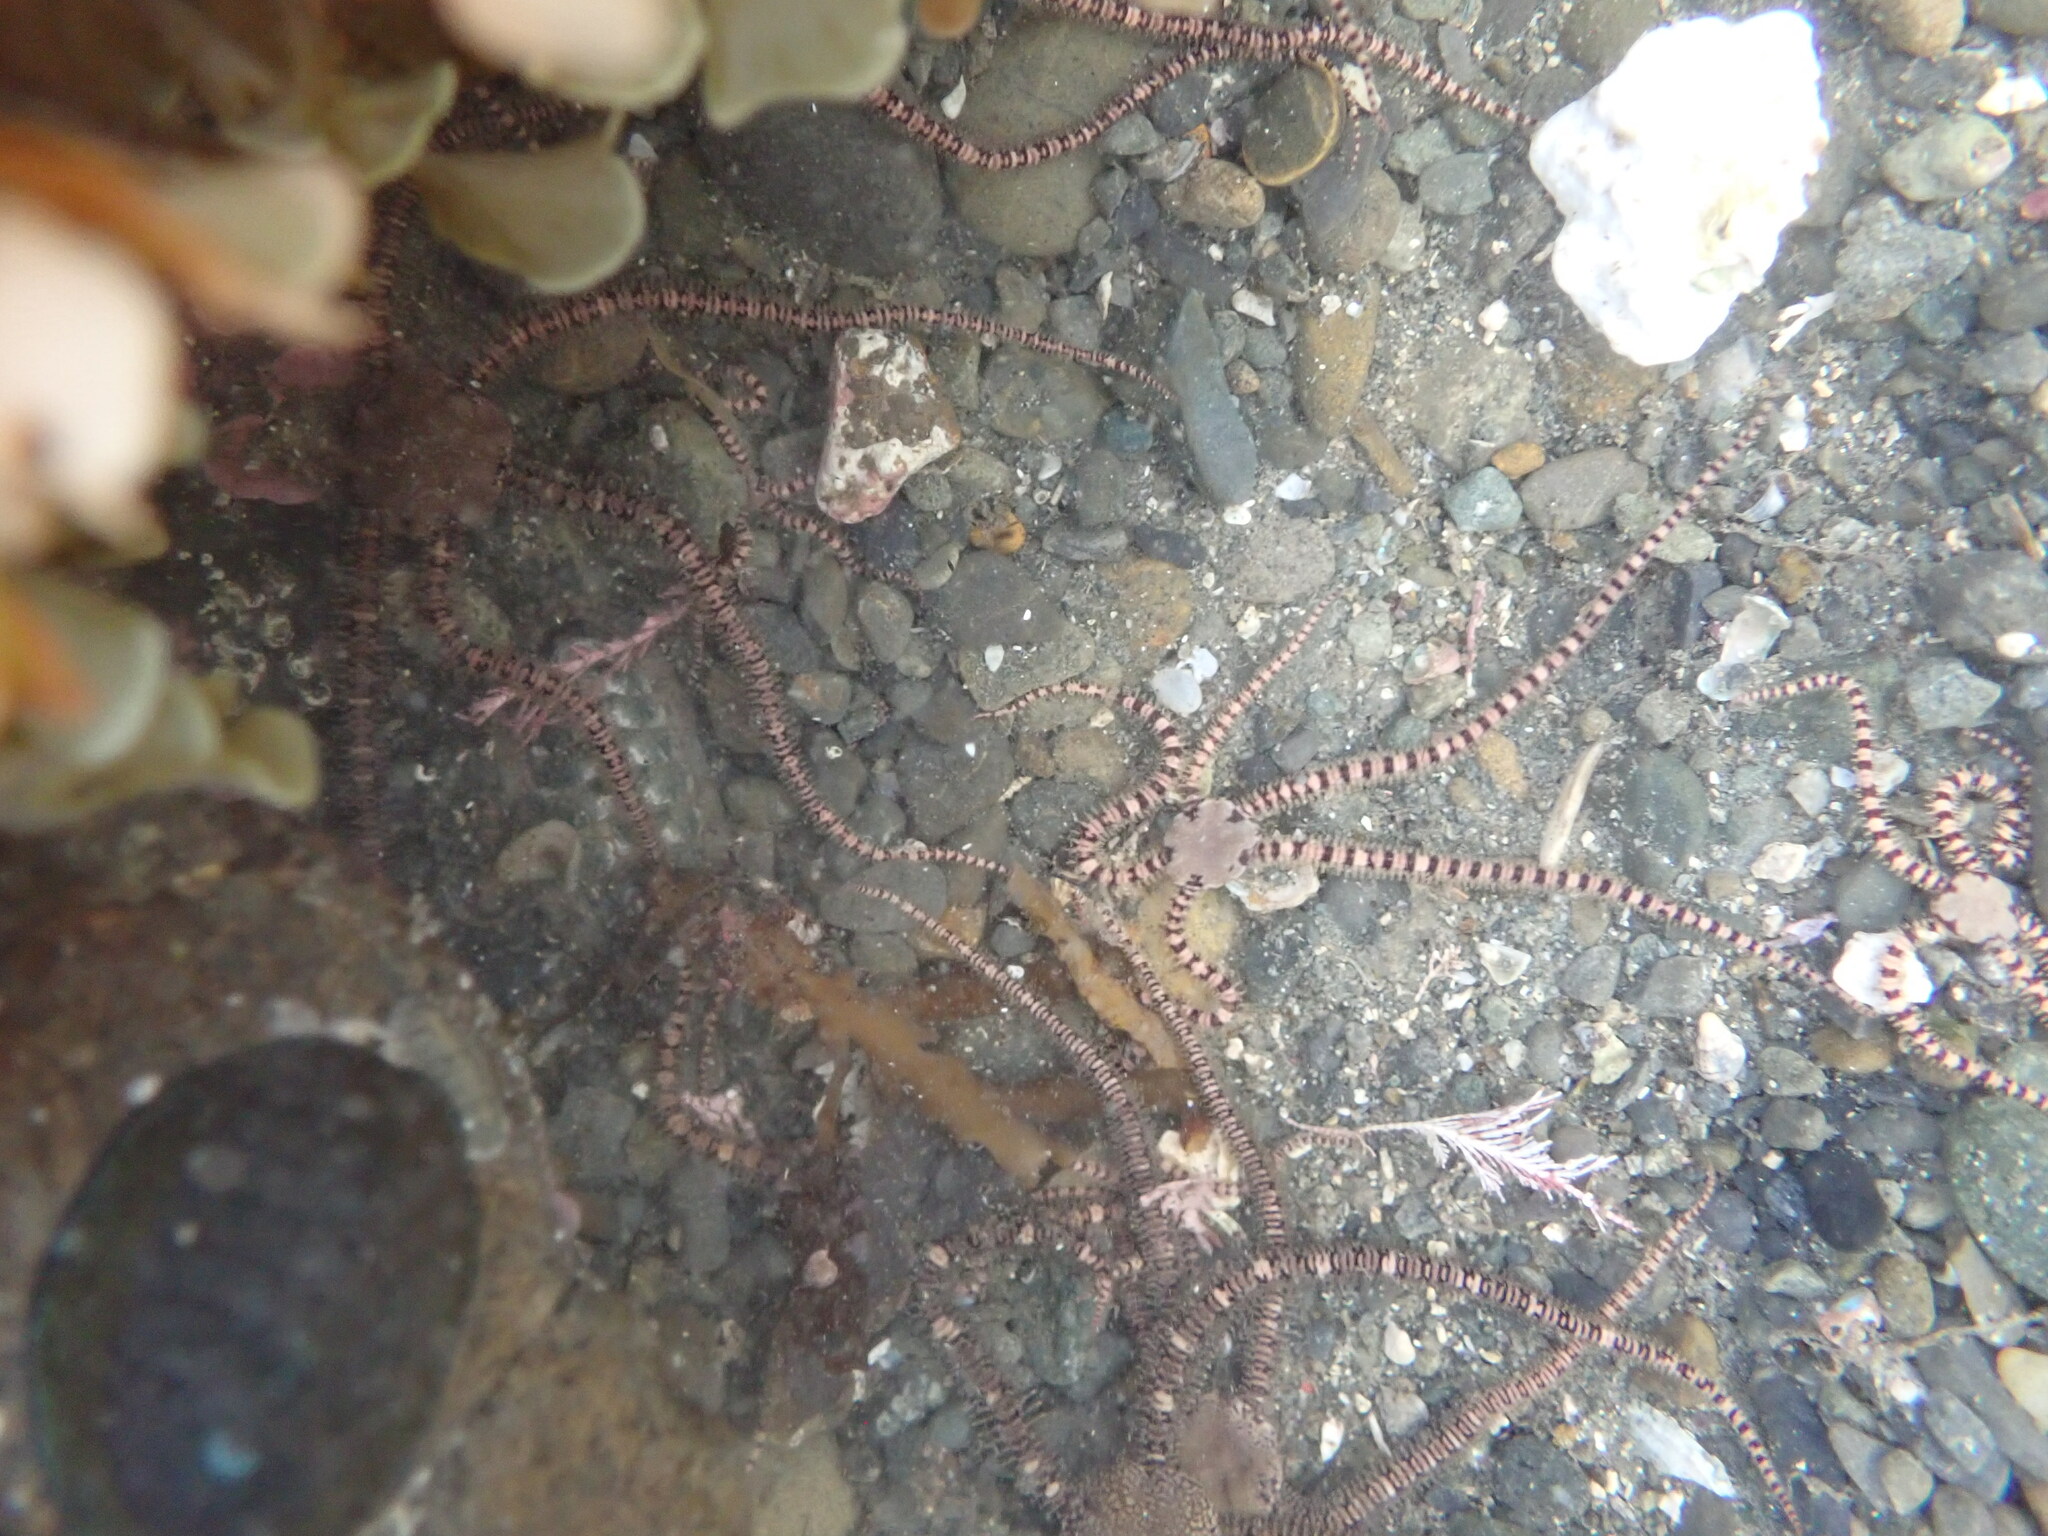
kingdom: Animalia
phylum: Echinodermata
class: Ophiuroidea
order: Amphilepidida
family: Ophionereididae
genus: Ophionereis
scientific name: Ophionereis fasciata
